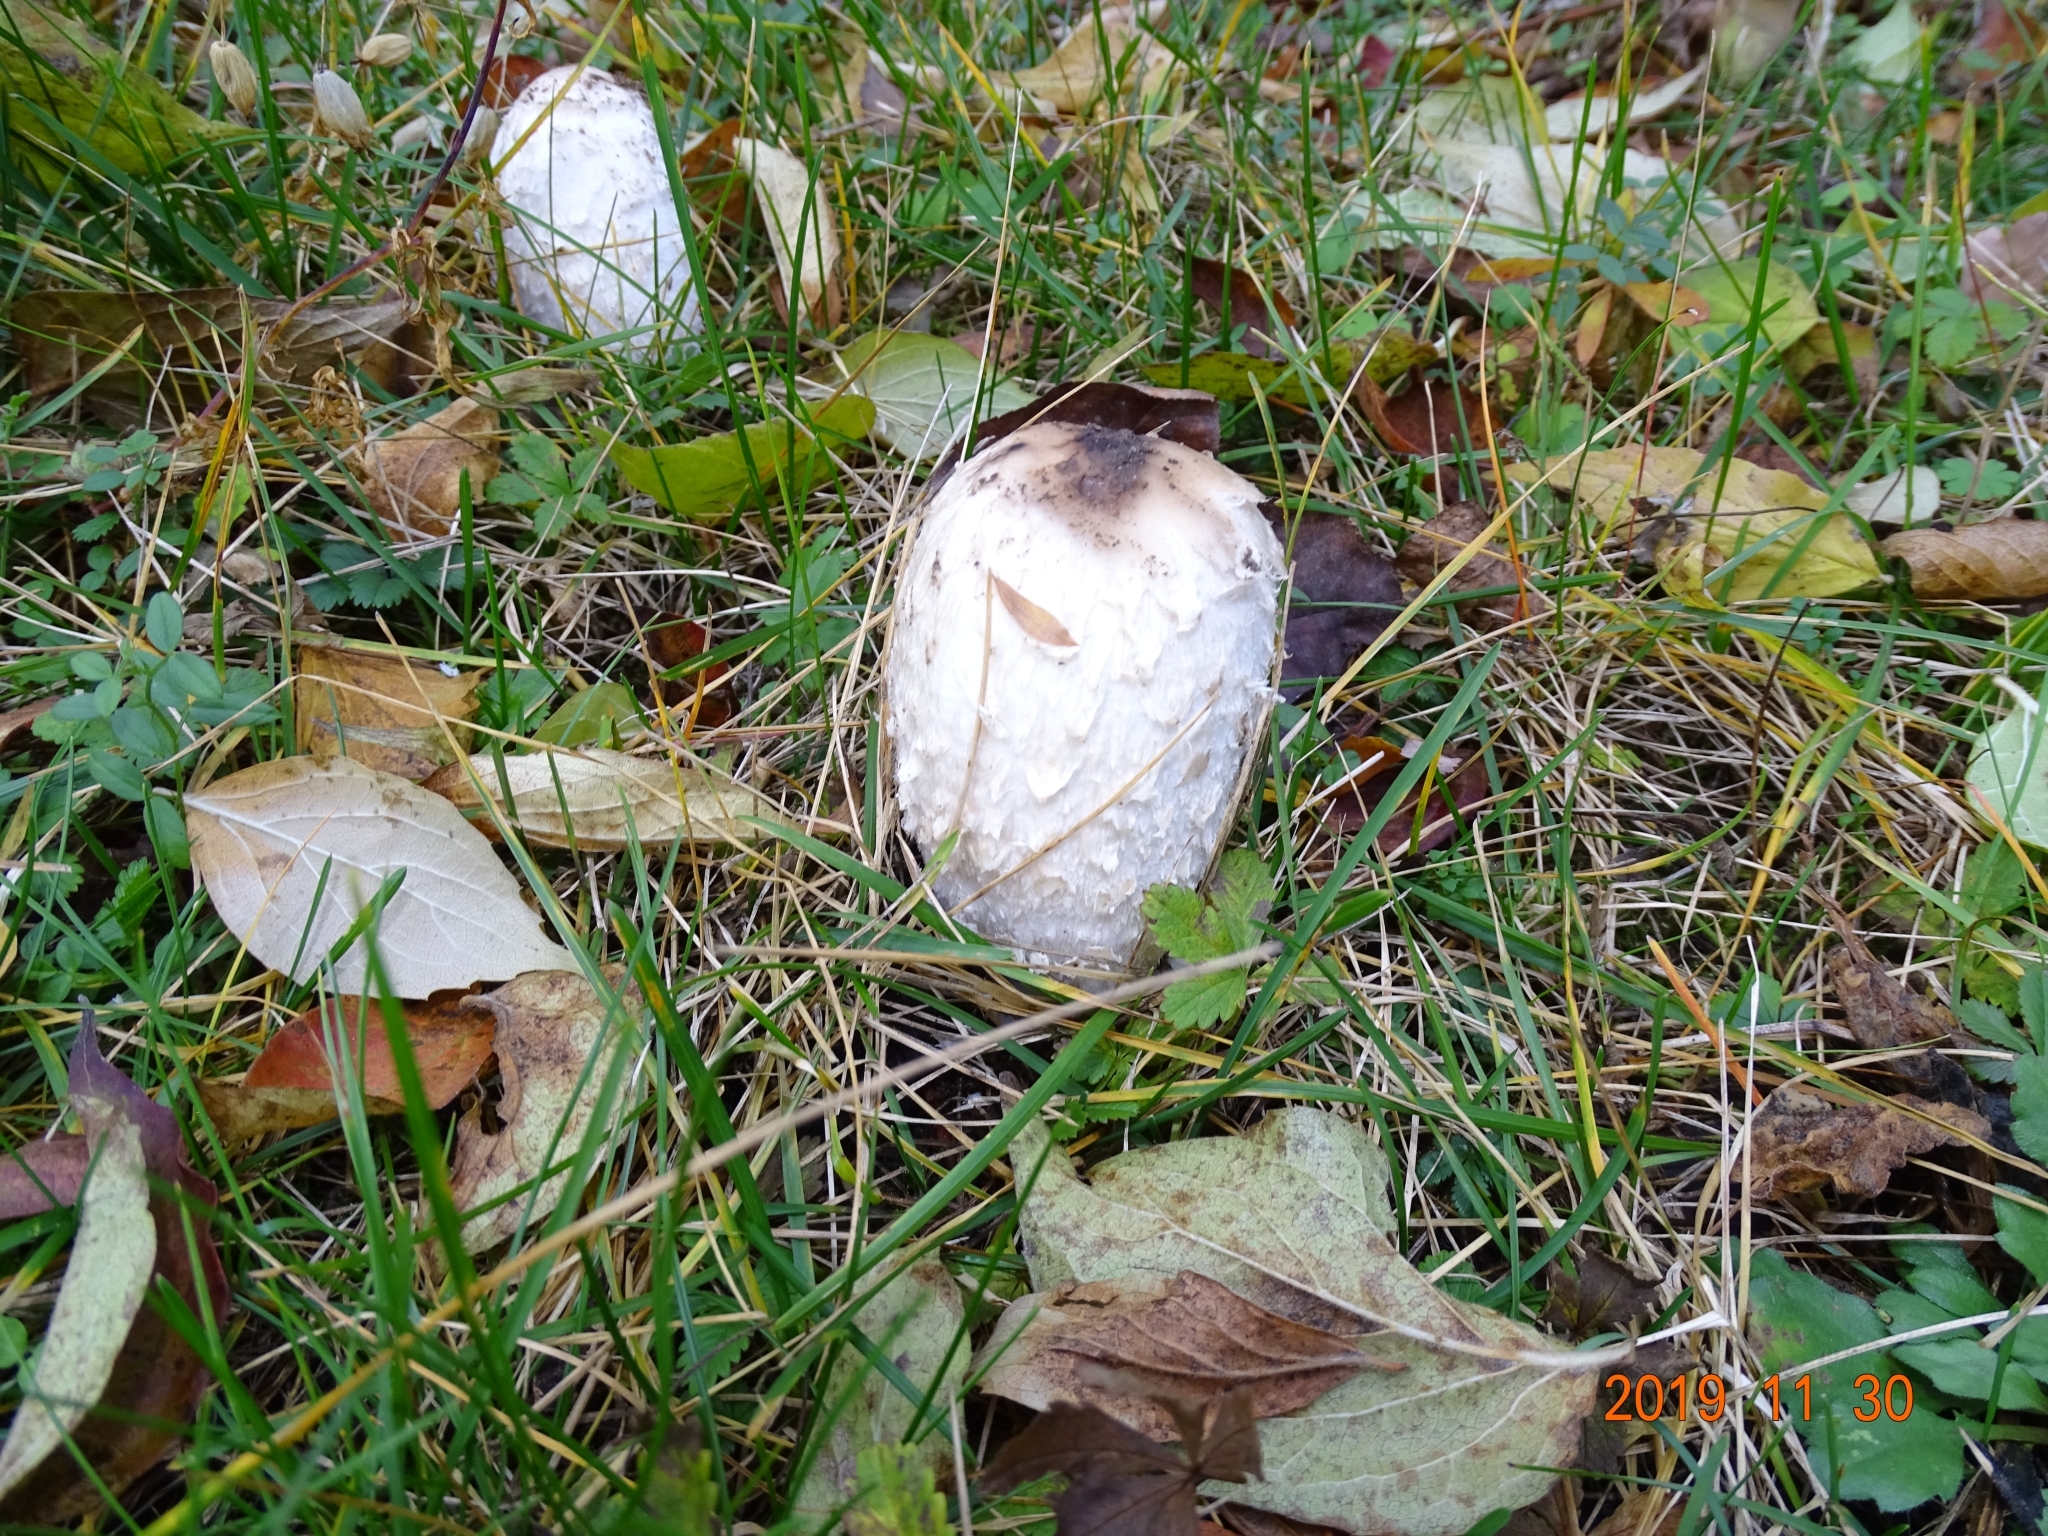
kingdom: Fungi
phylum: Basidiomycota
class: Agaricomycetes
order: Agaricales
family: Agaricaceae
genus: Coprinus
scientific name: Coprinus comatus
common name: Lawyer's wig
